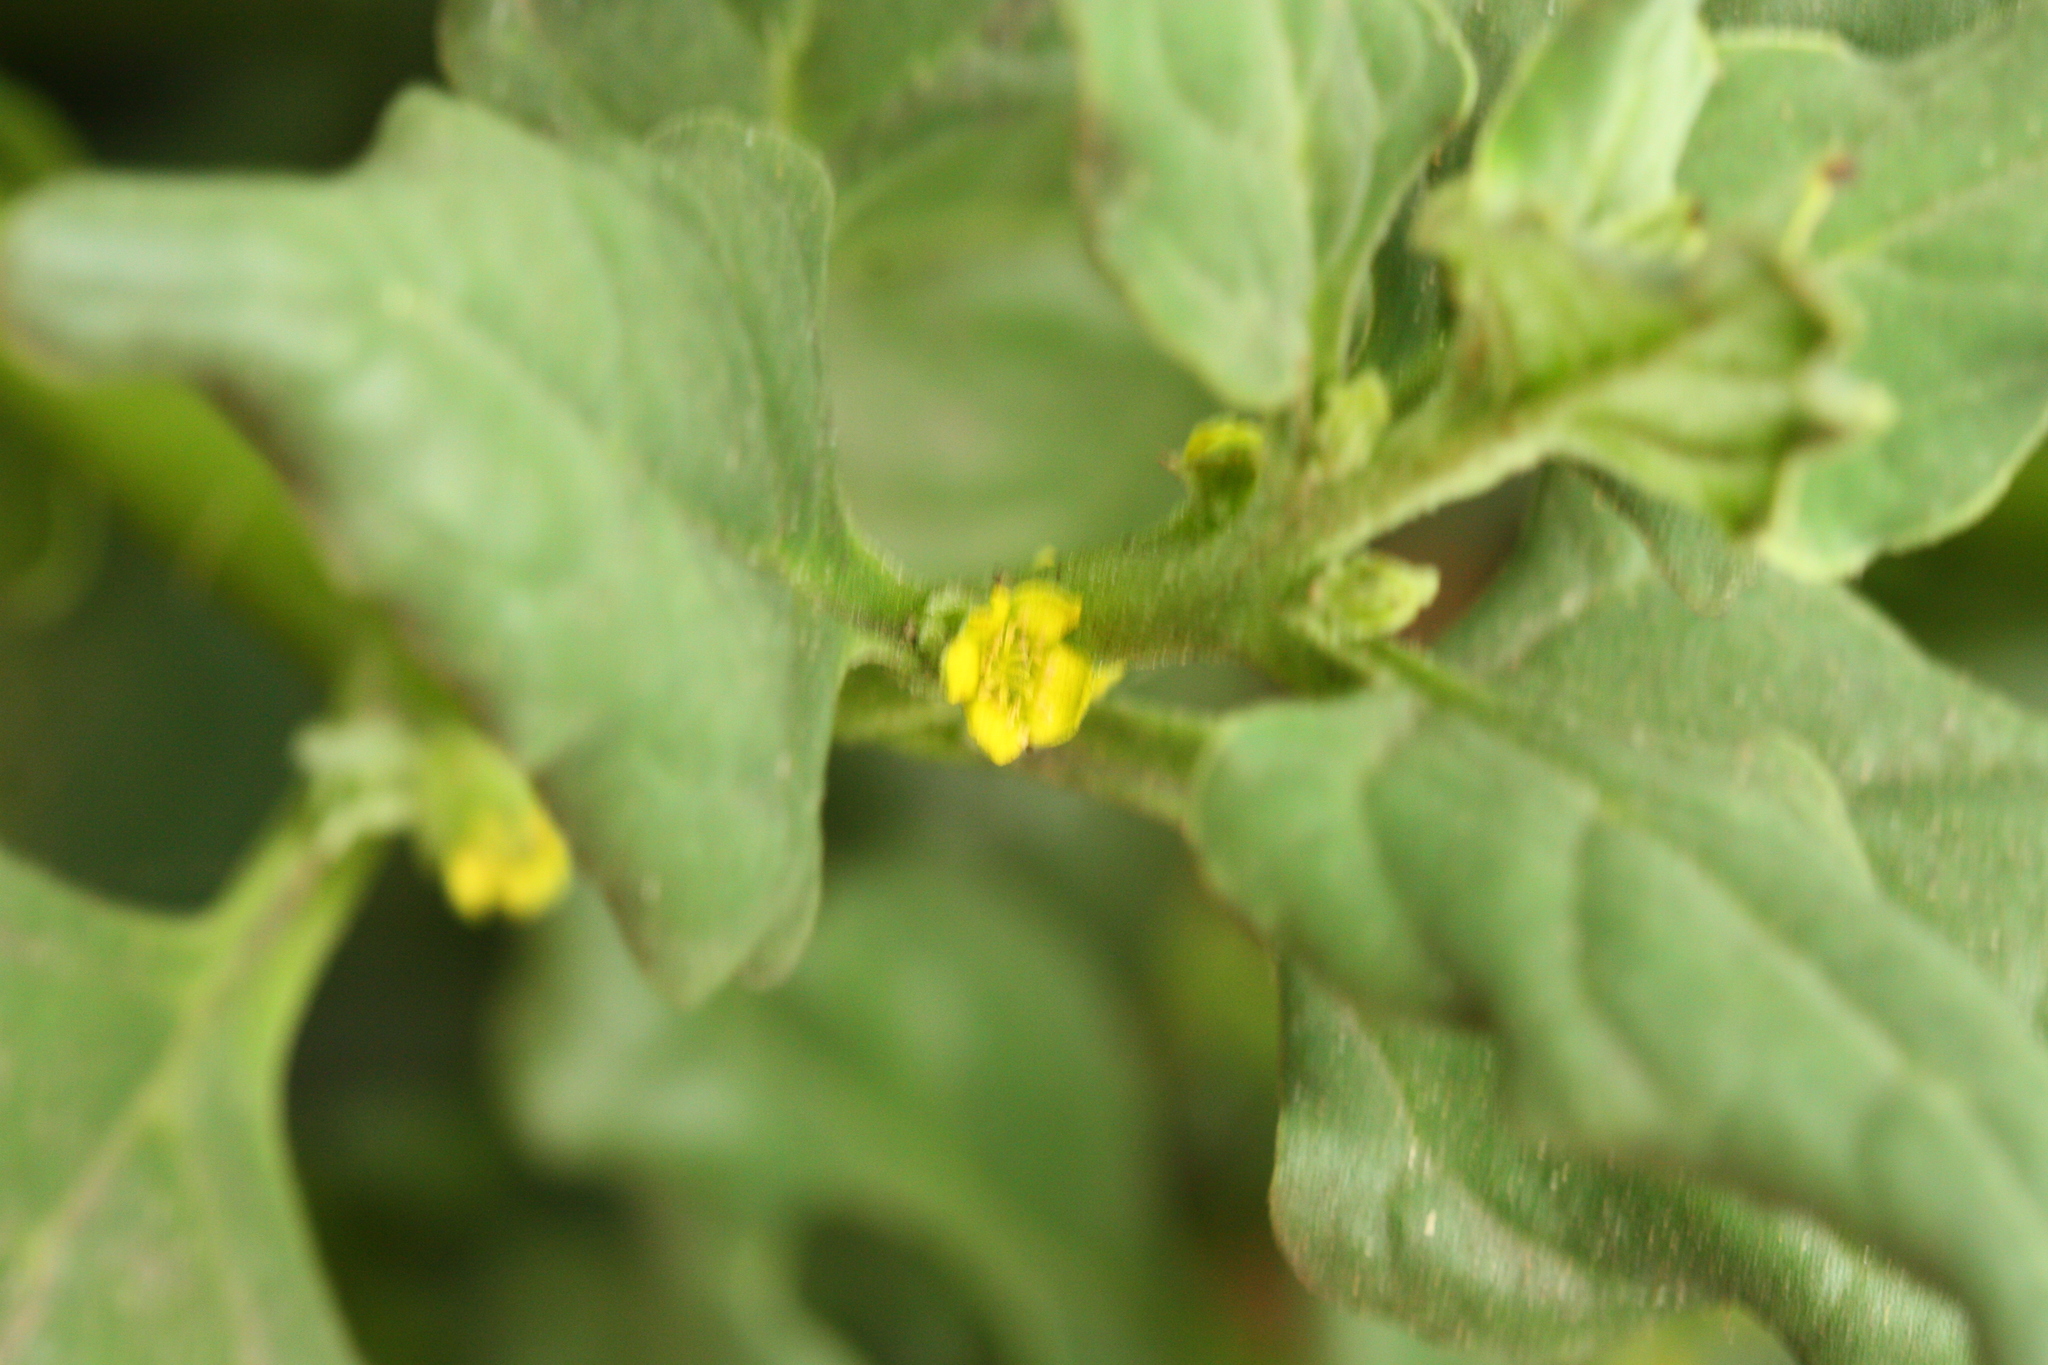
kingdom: Plantae
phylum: Tracheophyta
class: Magnoliopsida
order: Caryophyllales
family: Aizoaceae
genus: Tetragonia
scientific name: Tetragonia tetragonoides
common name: New zealand-spinach
